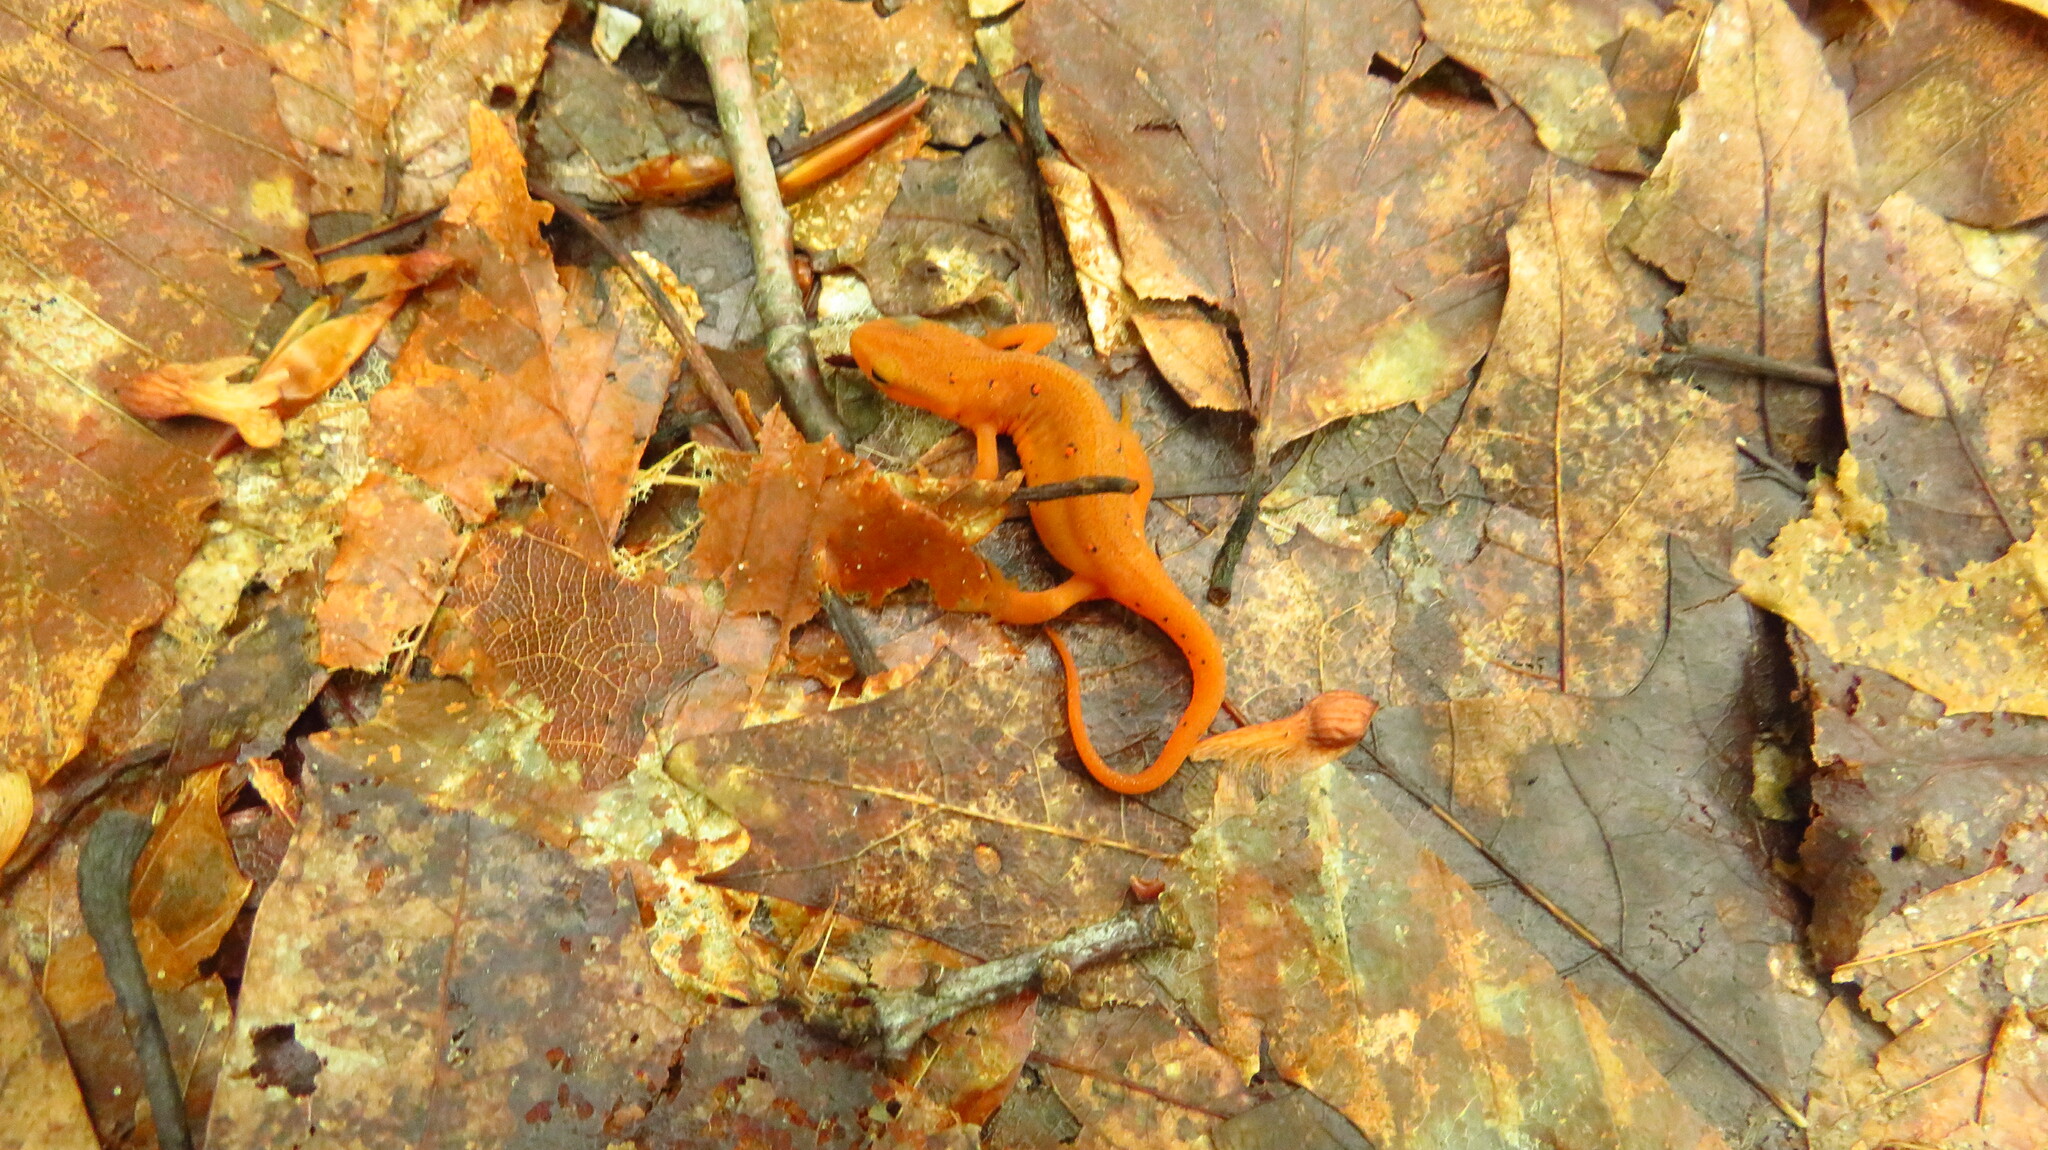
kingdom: Animalia
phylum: Chordata
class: Amphibia
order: Caudata
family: Salamandridae
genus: Notophthalmus
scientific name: Notophthalmus viridescens
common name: Eastern newt
